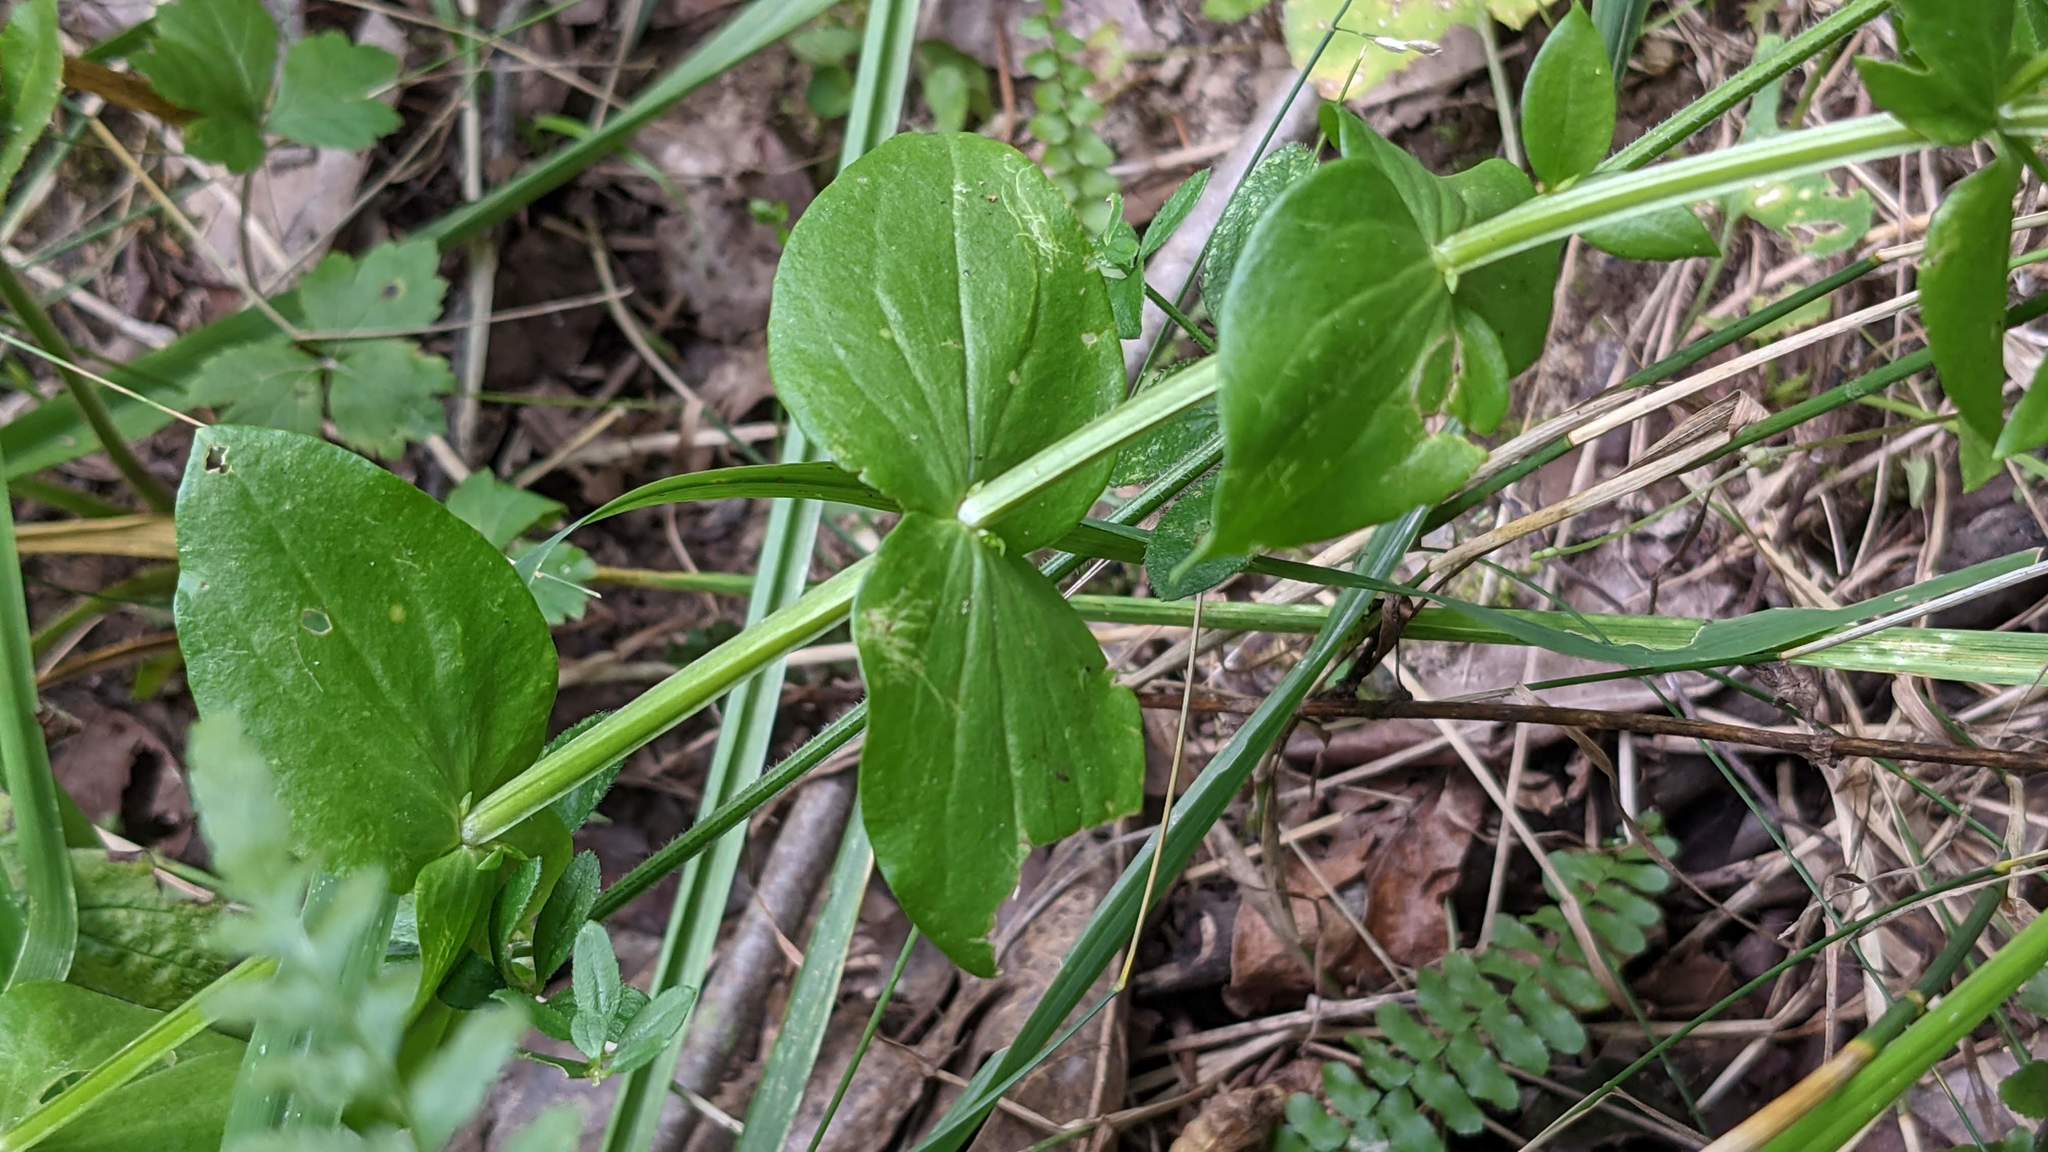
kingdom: Plantae
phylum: Tracheophyta
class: Magnoliopsida
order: Gentianales
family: Gentianaceae
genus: Sabatia
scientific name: Sabatia angularis
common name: Rose-pink
